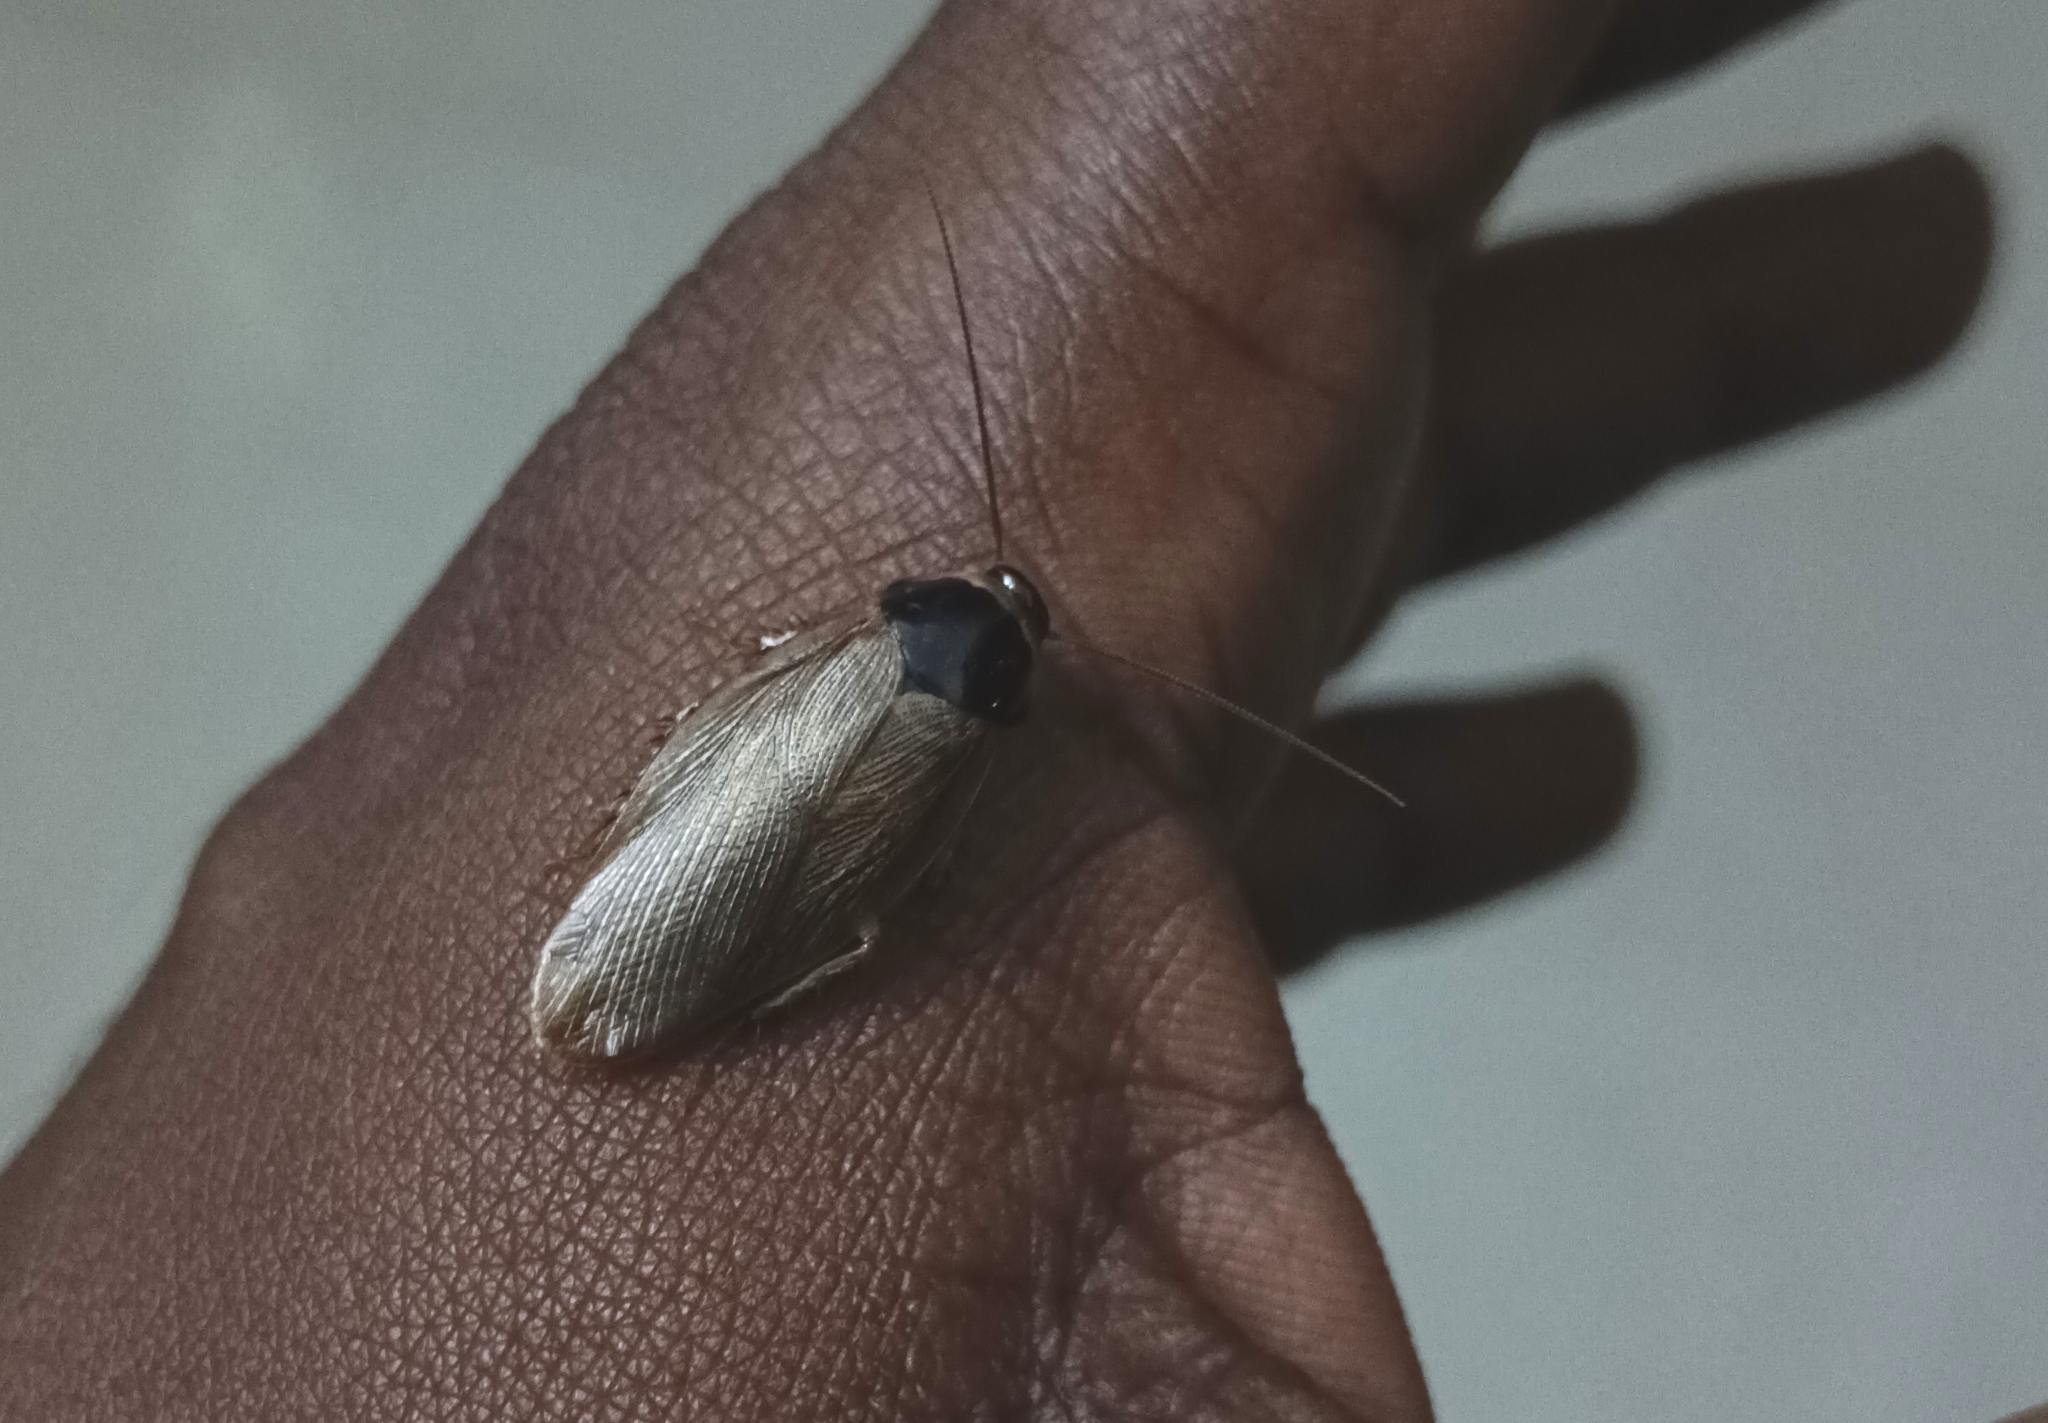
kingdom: Animalia
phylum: Arthropoda
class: Insecta
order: Blattodea
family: Blaberidae
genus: Pycnoscelus
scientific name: Pycnoscelus indicus
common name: Burrowing cockroach
